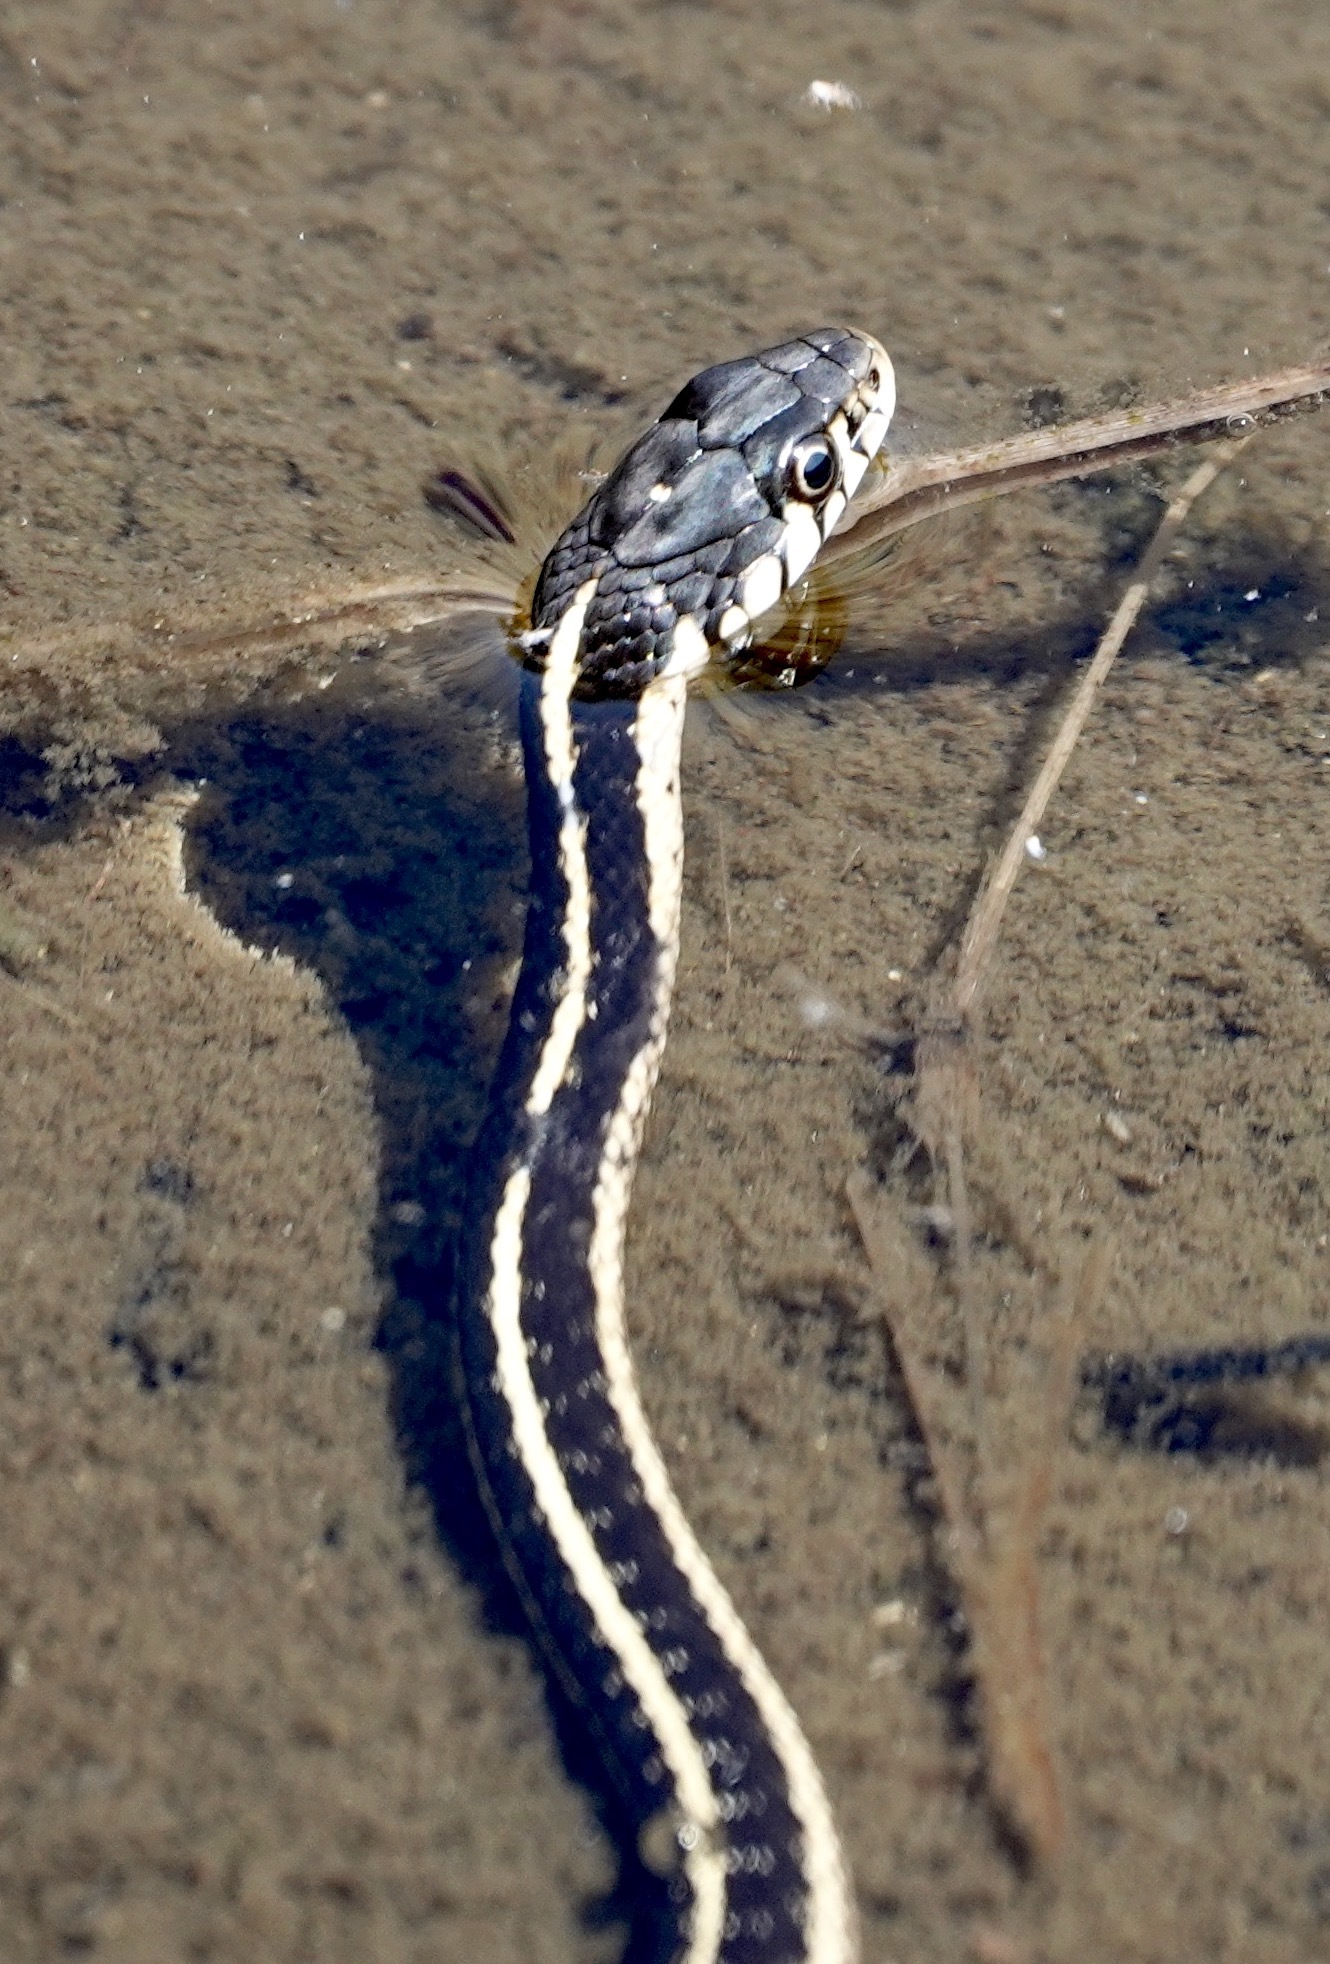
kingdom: Animalia
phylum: Chordata
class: Squamata
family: Colubridae
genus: Thamnophis
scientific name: Thamnophis elegans
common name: Western terrestrial garter snake
